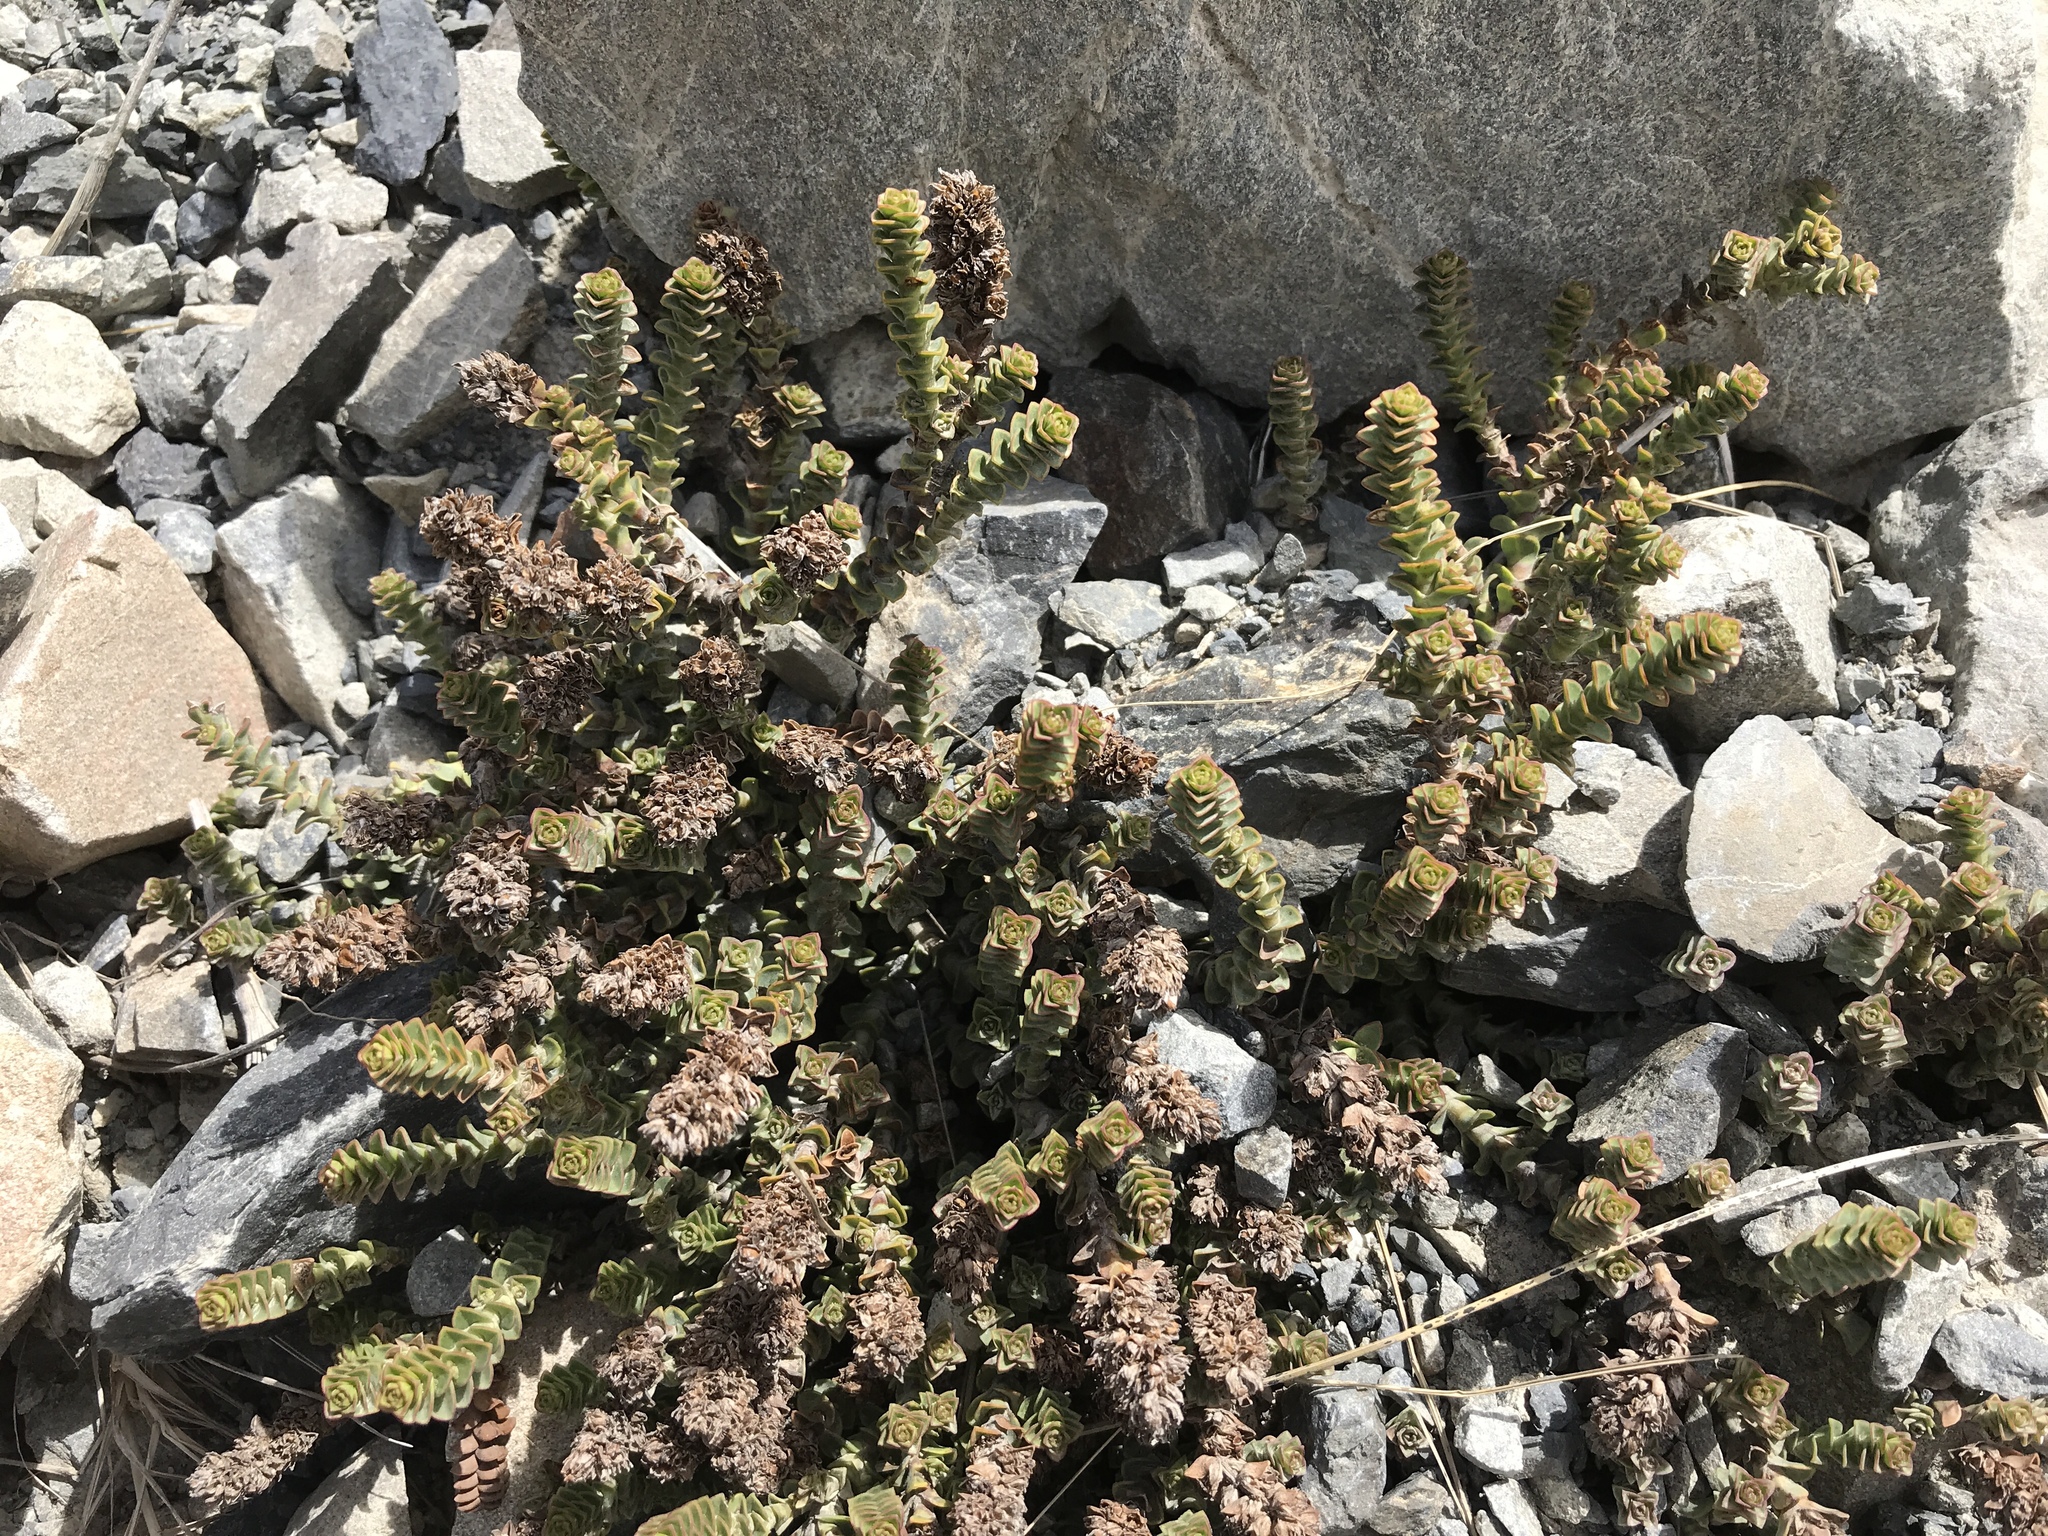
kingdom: Plantae
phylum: Tracheophyta
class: Magnoliopsida
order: Lamiales
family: Plantaginaceae
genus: Veronica
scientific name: Veronica epacridea
